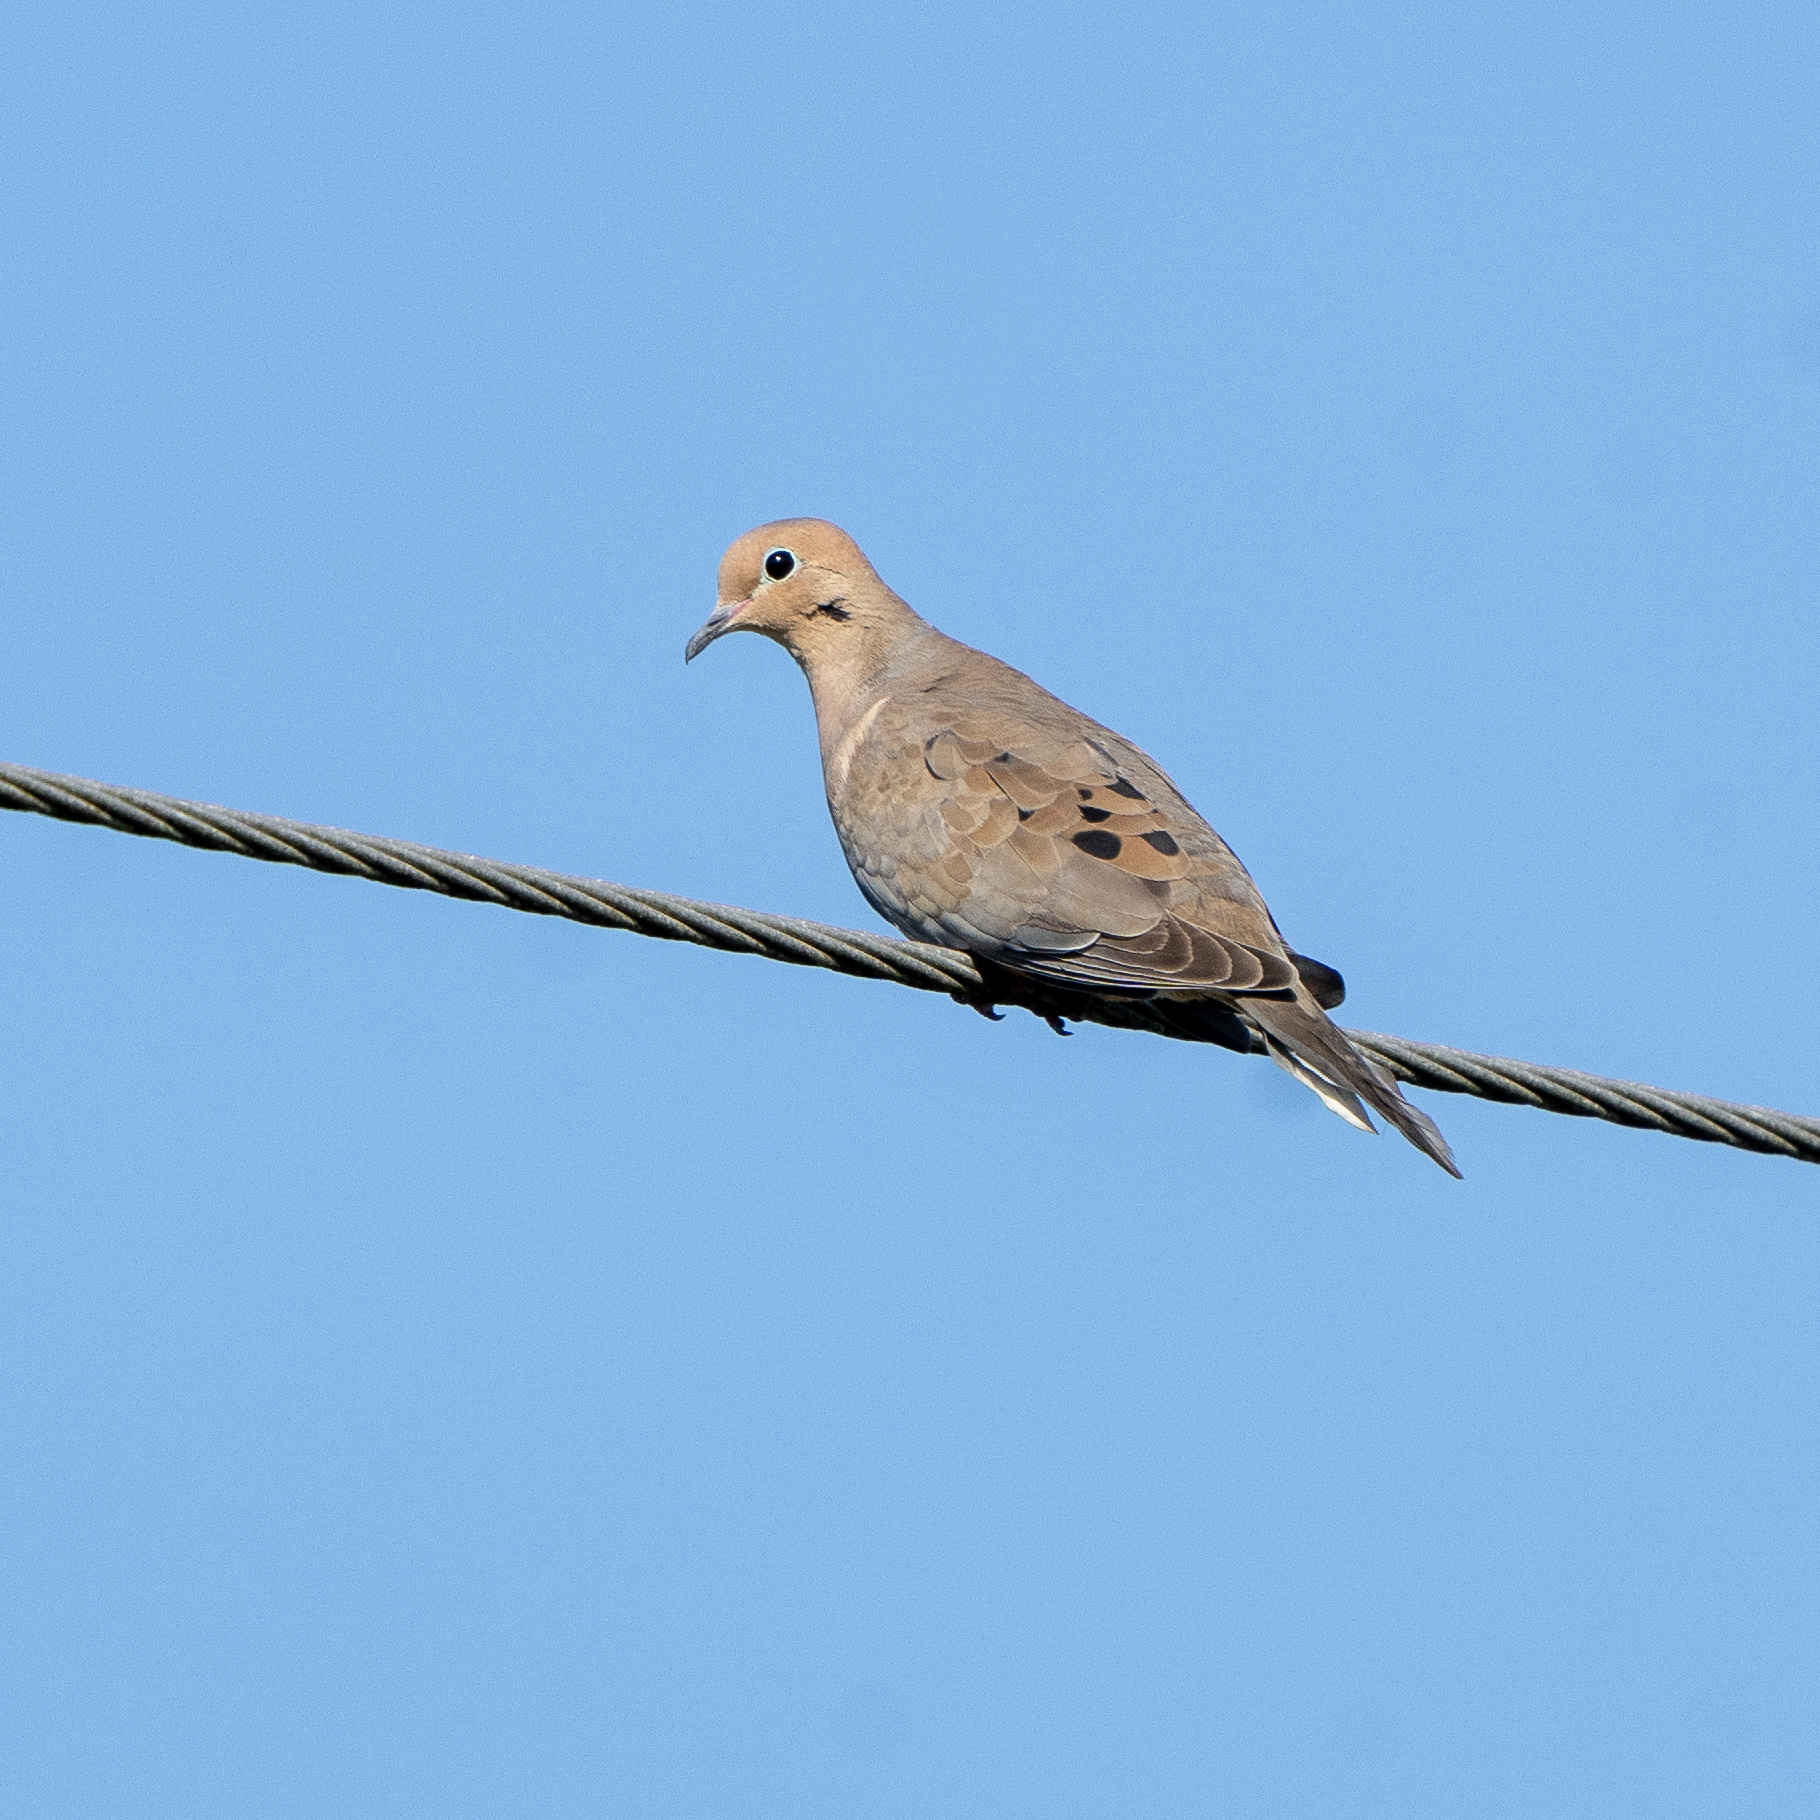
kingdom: Animalia
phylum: Chordata
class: Aves
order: Columbiformes
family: Columbidae
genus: Zenaida
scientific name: Zenaida macroura
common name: Mourning dove
